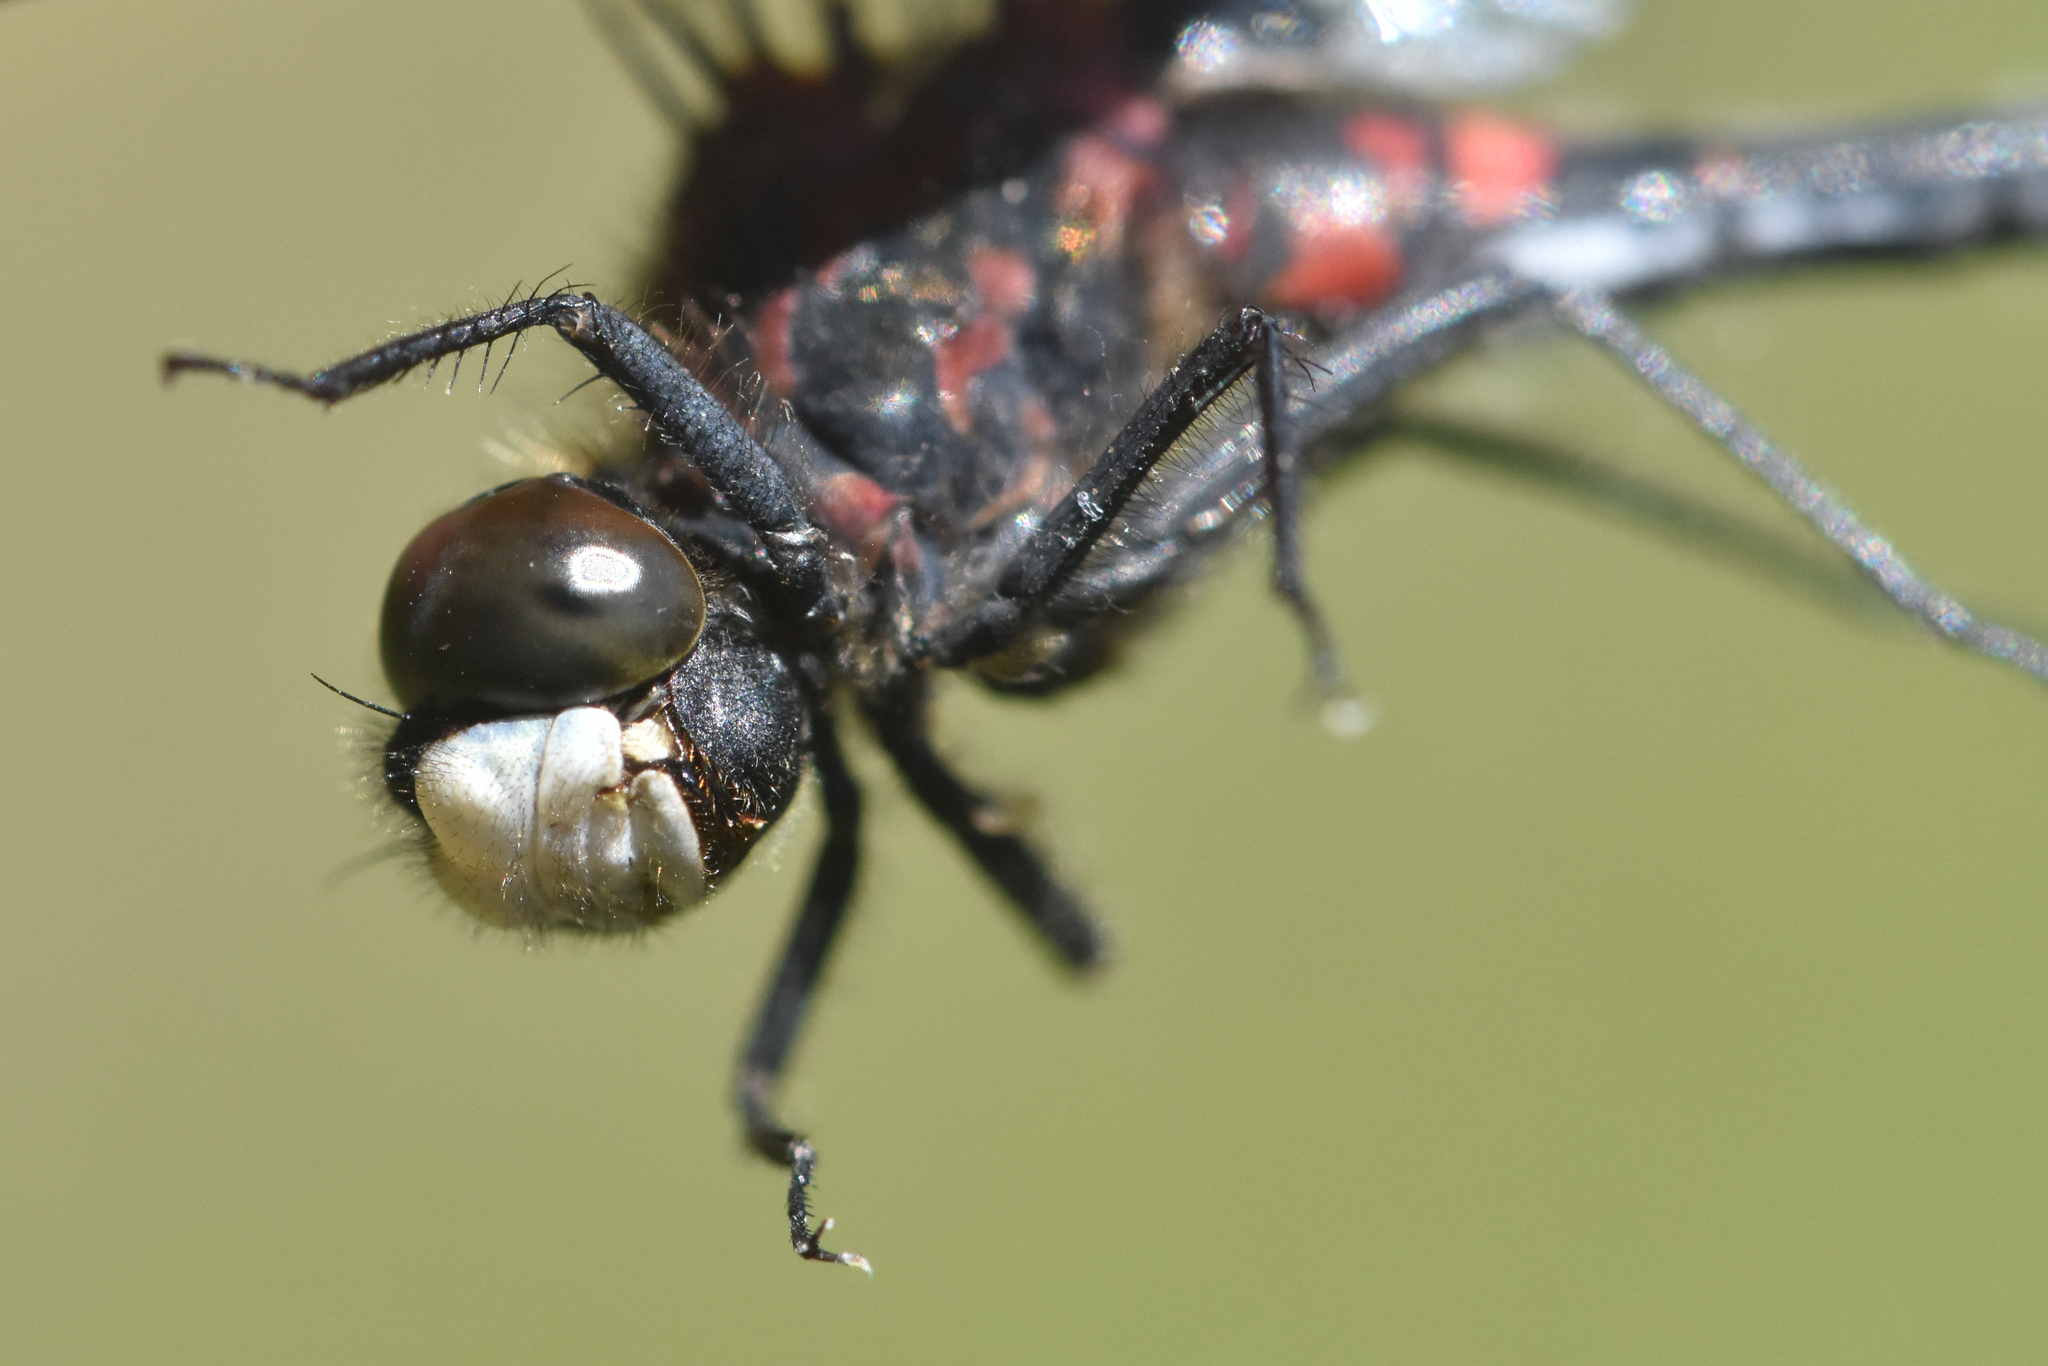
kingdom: Animalia
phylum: Arthropoda
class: Insecta
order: Odonata
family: Libellulidae
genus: Leucorrhinia
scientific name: Leucorrhinia hudsonica
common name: Hudsonian whiteface
